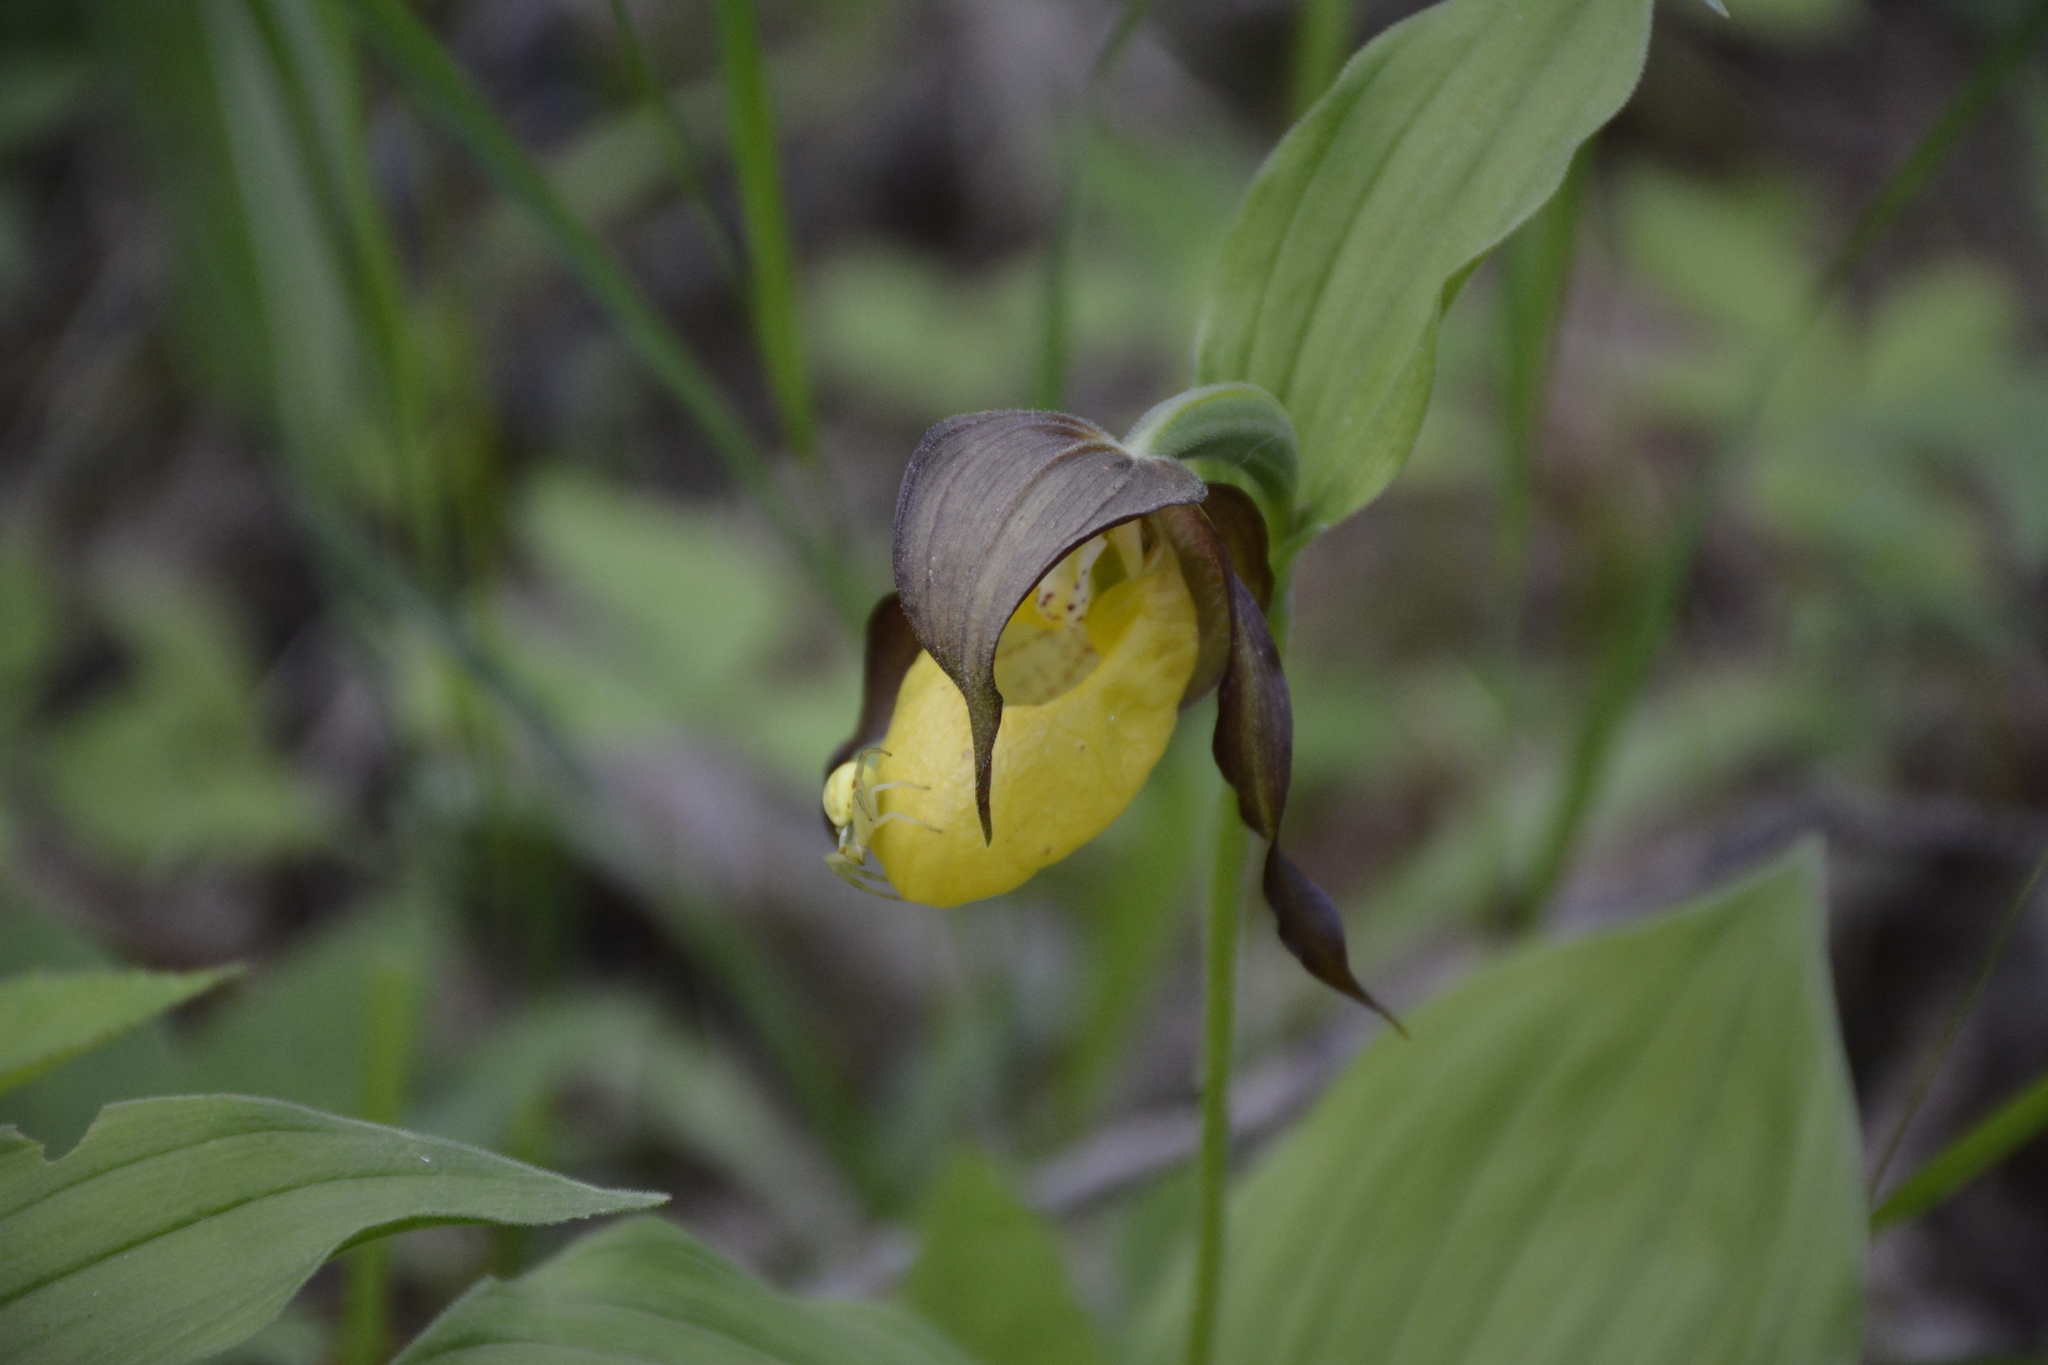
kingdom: Plantae
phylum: Tracheophyta
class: Liliopsida
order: Asparagales
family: Orchidaceae
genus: Cypripedium
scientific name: Cypripedium calceolus
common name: Lady's-slipper
